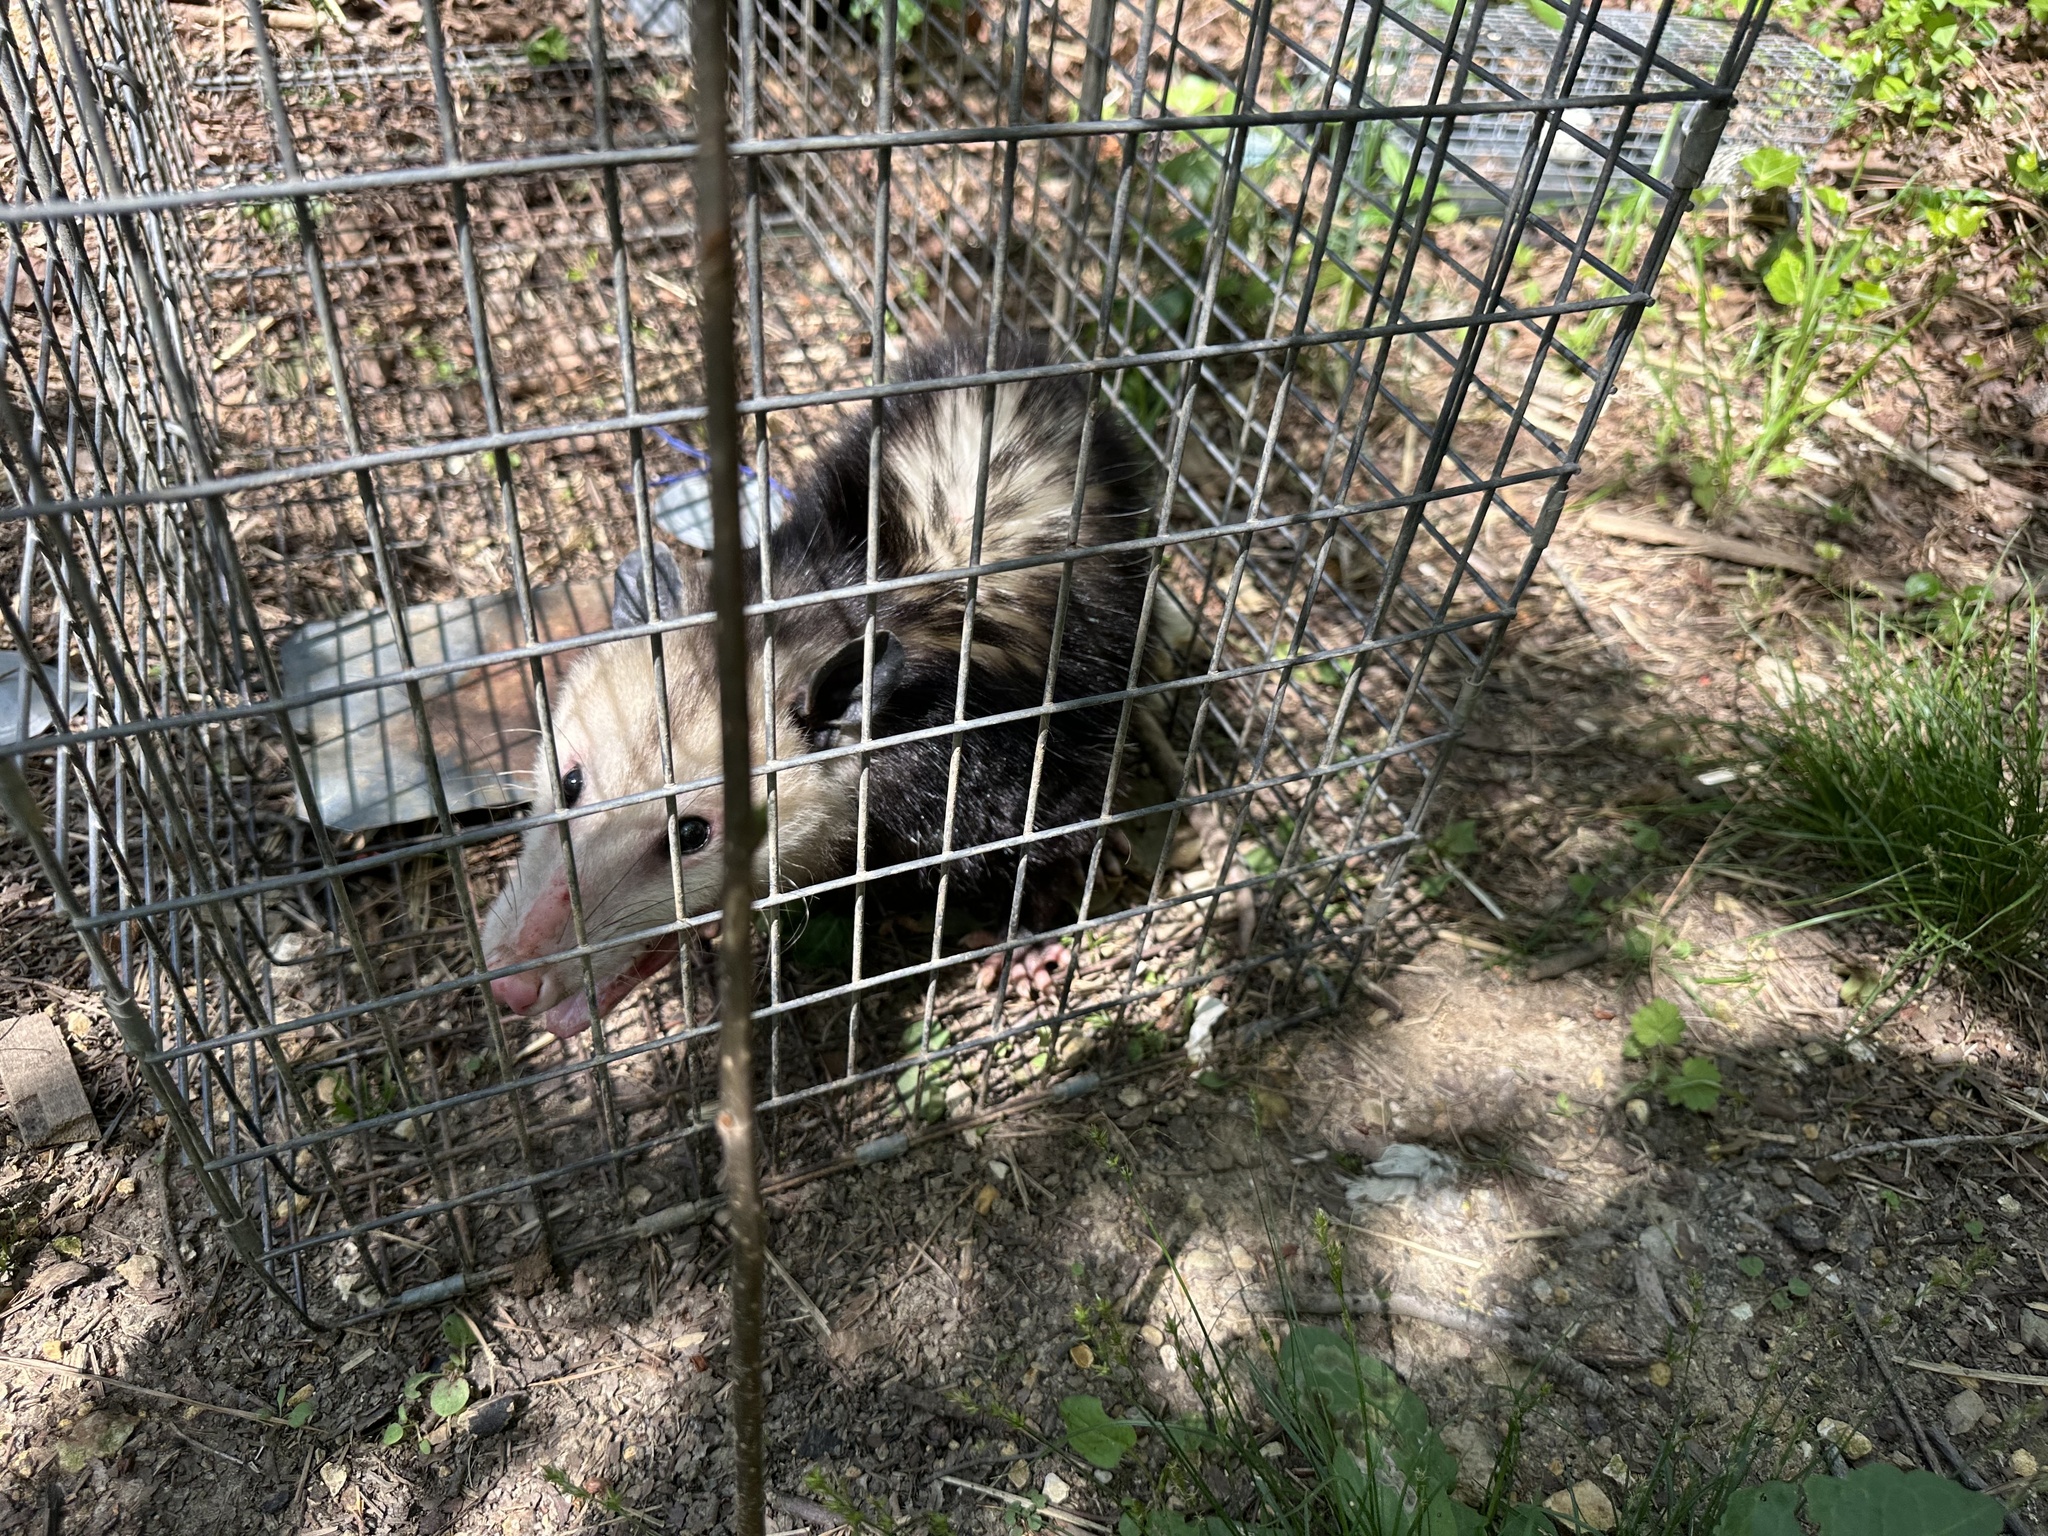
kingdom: Animalia
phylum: Chordata
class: Mammalia
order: Didelphimorphia
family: Didelphidae
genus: Didelphis
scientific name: Didelphis virginiana
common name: Virginia opossum
